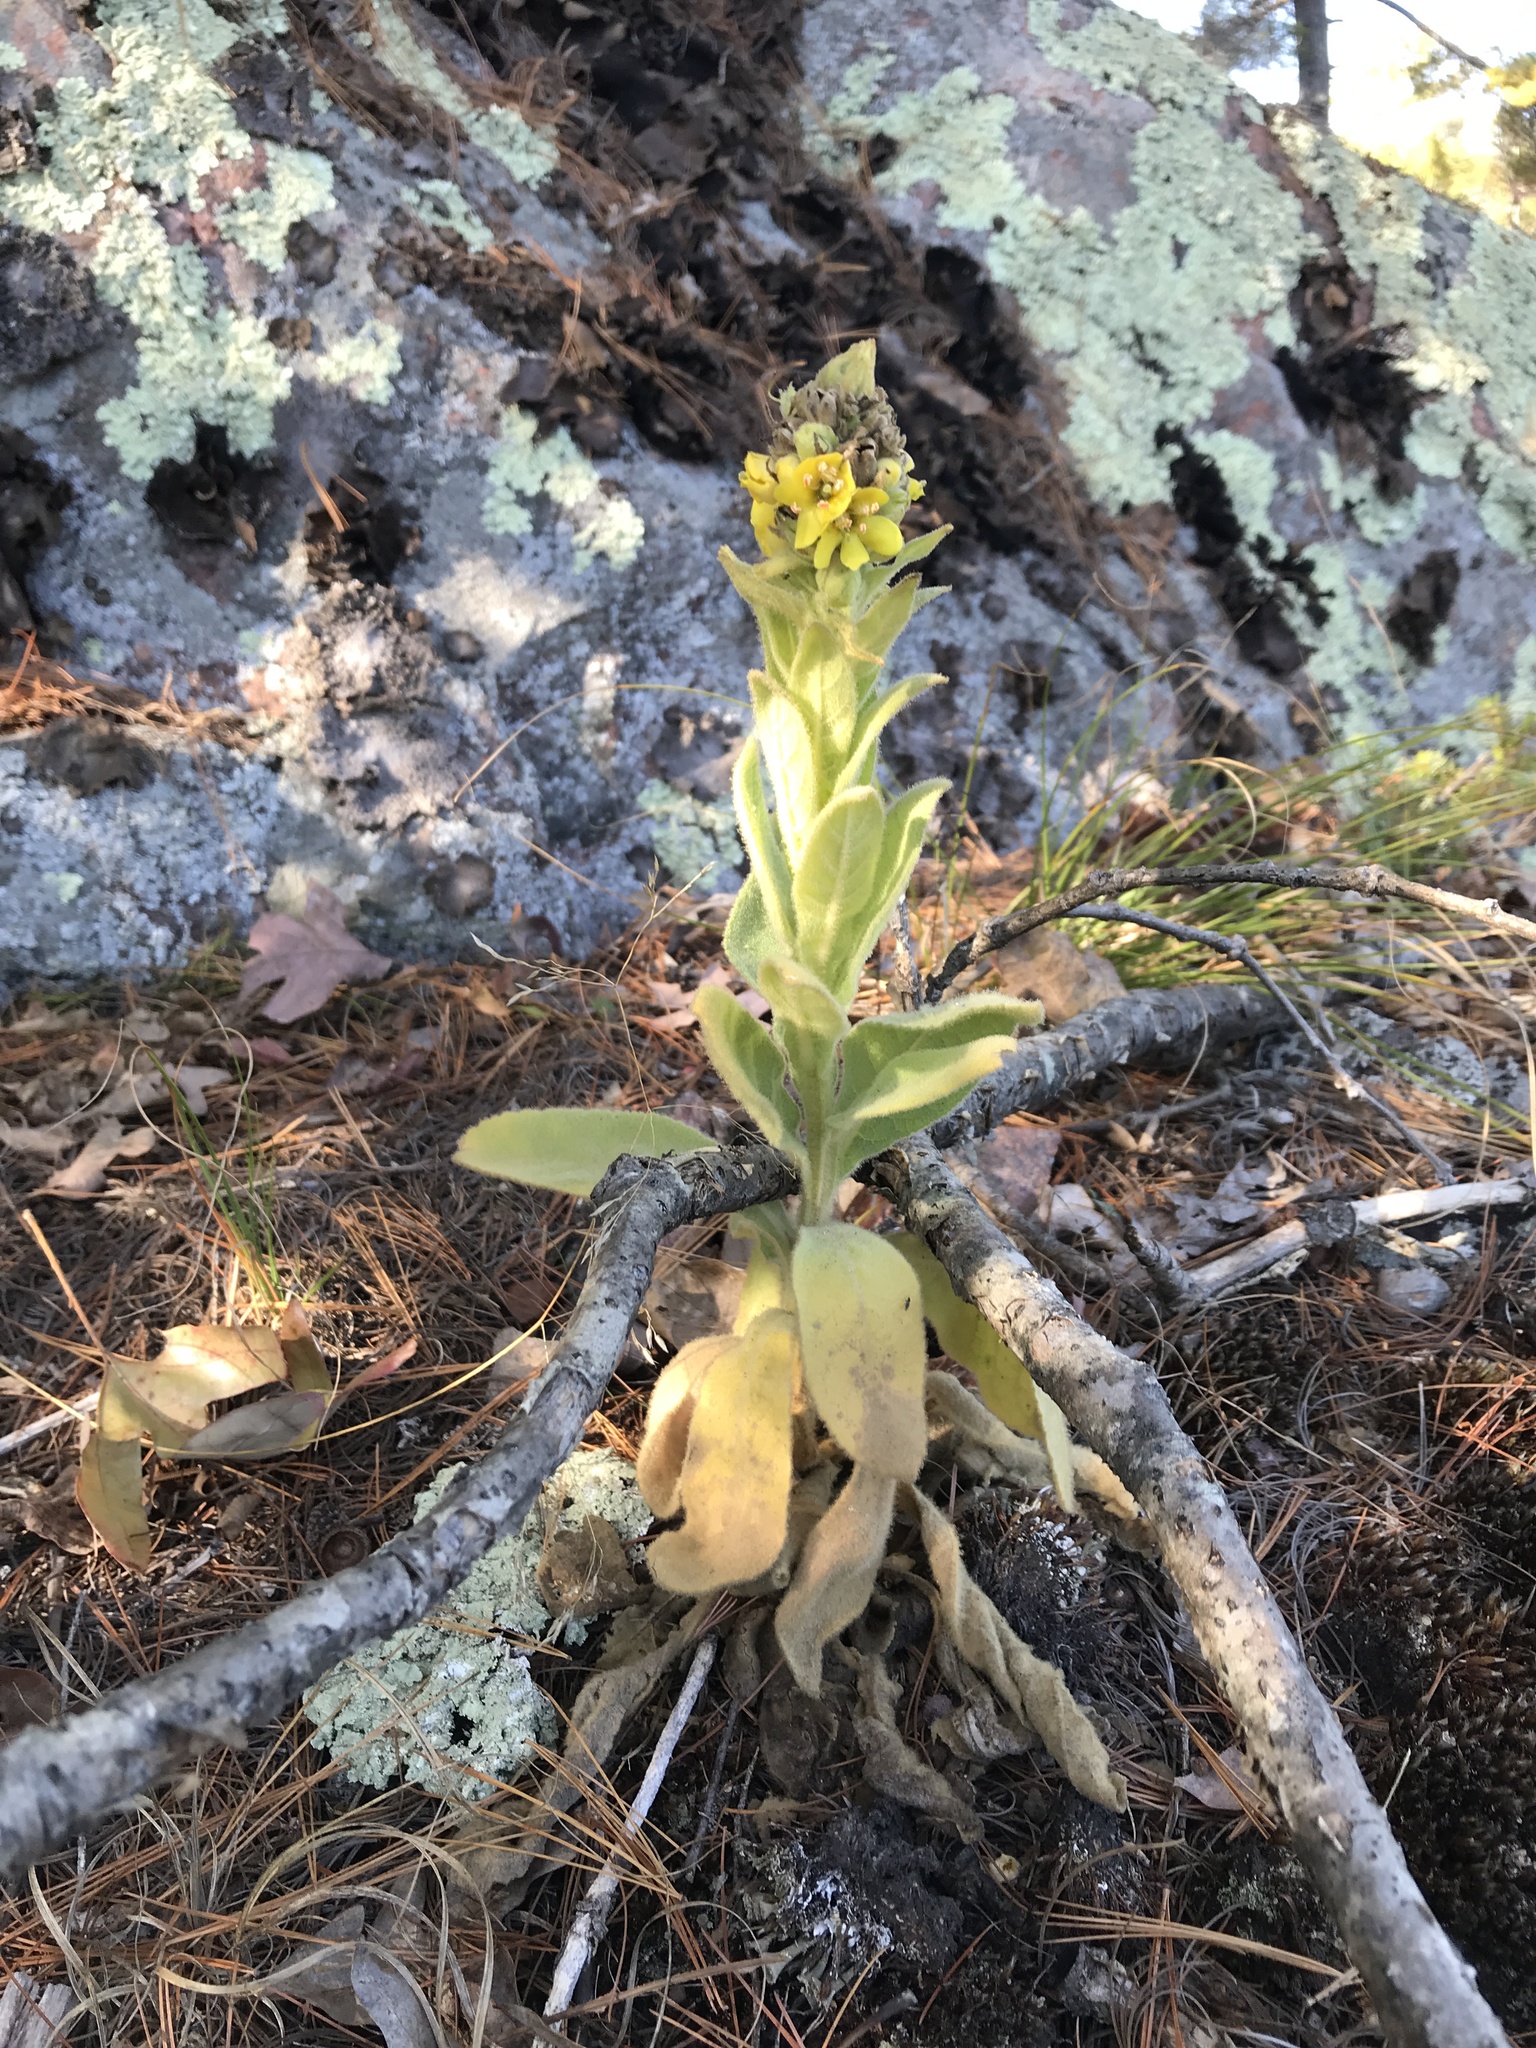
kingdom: Plantae
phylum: Tracheophyta
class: Magnoliopsida
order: Lamiales
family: Scrophulariaceae
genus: Verbascum
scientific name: Verbascum thapsus
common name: Common mullein
